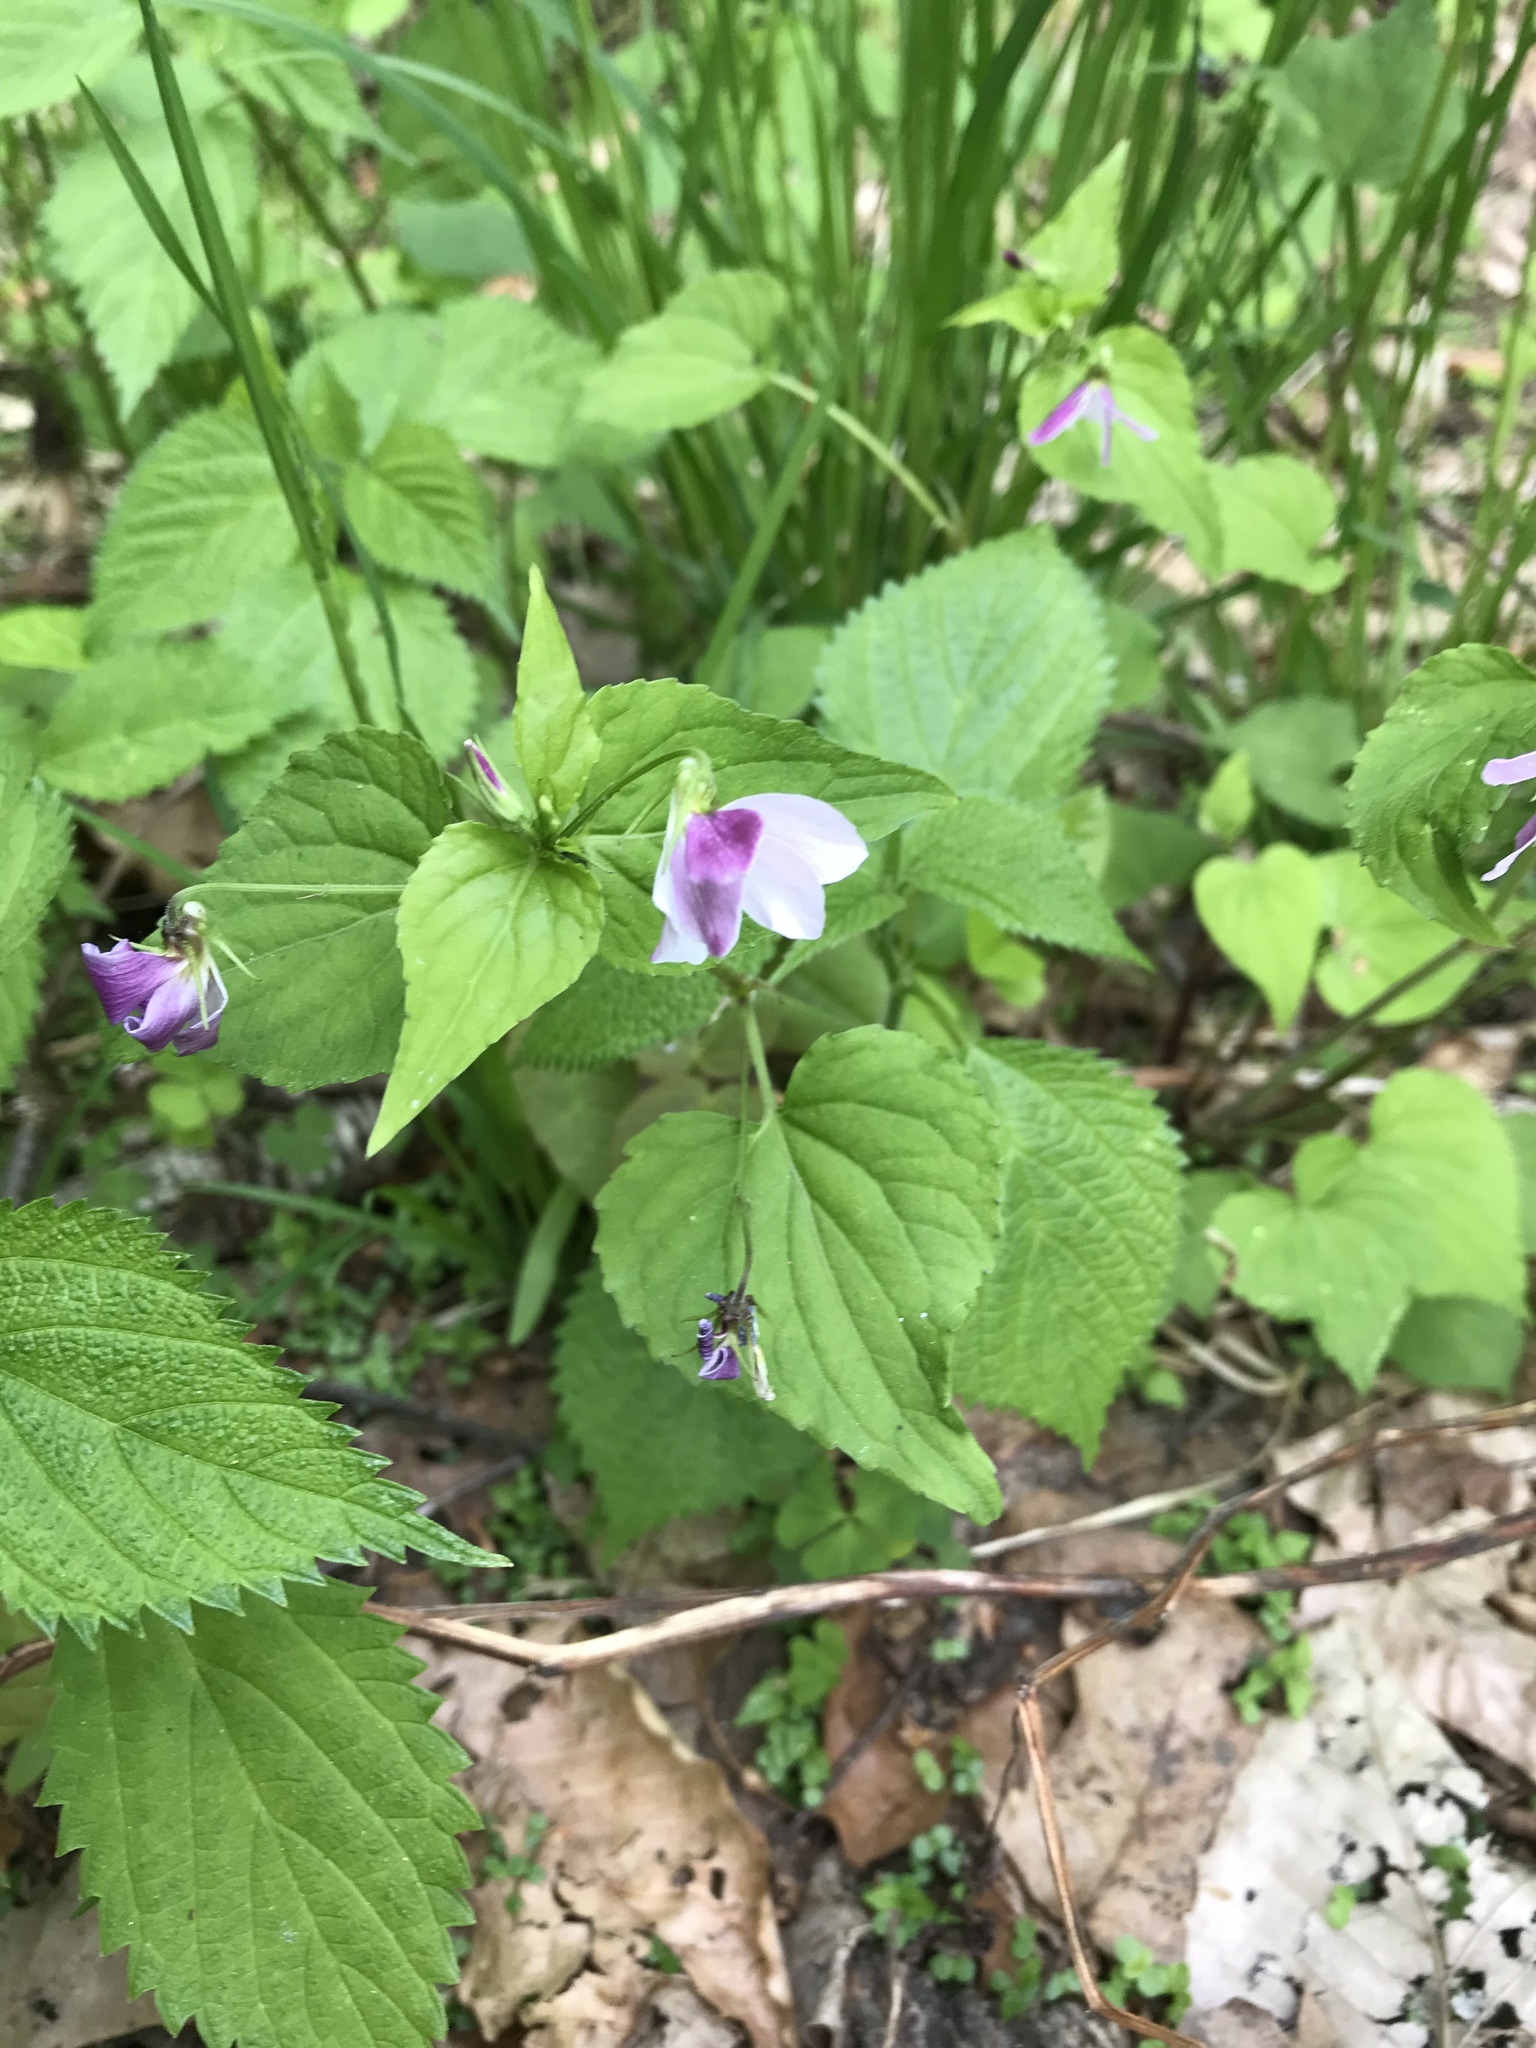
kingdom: Plantae
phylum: Tracheophyta
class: Magnoliopsida
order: Malpighiales
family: Violaceae
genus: Viola
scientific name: Viola canadensis
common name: Canada violet
